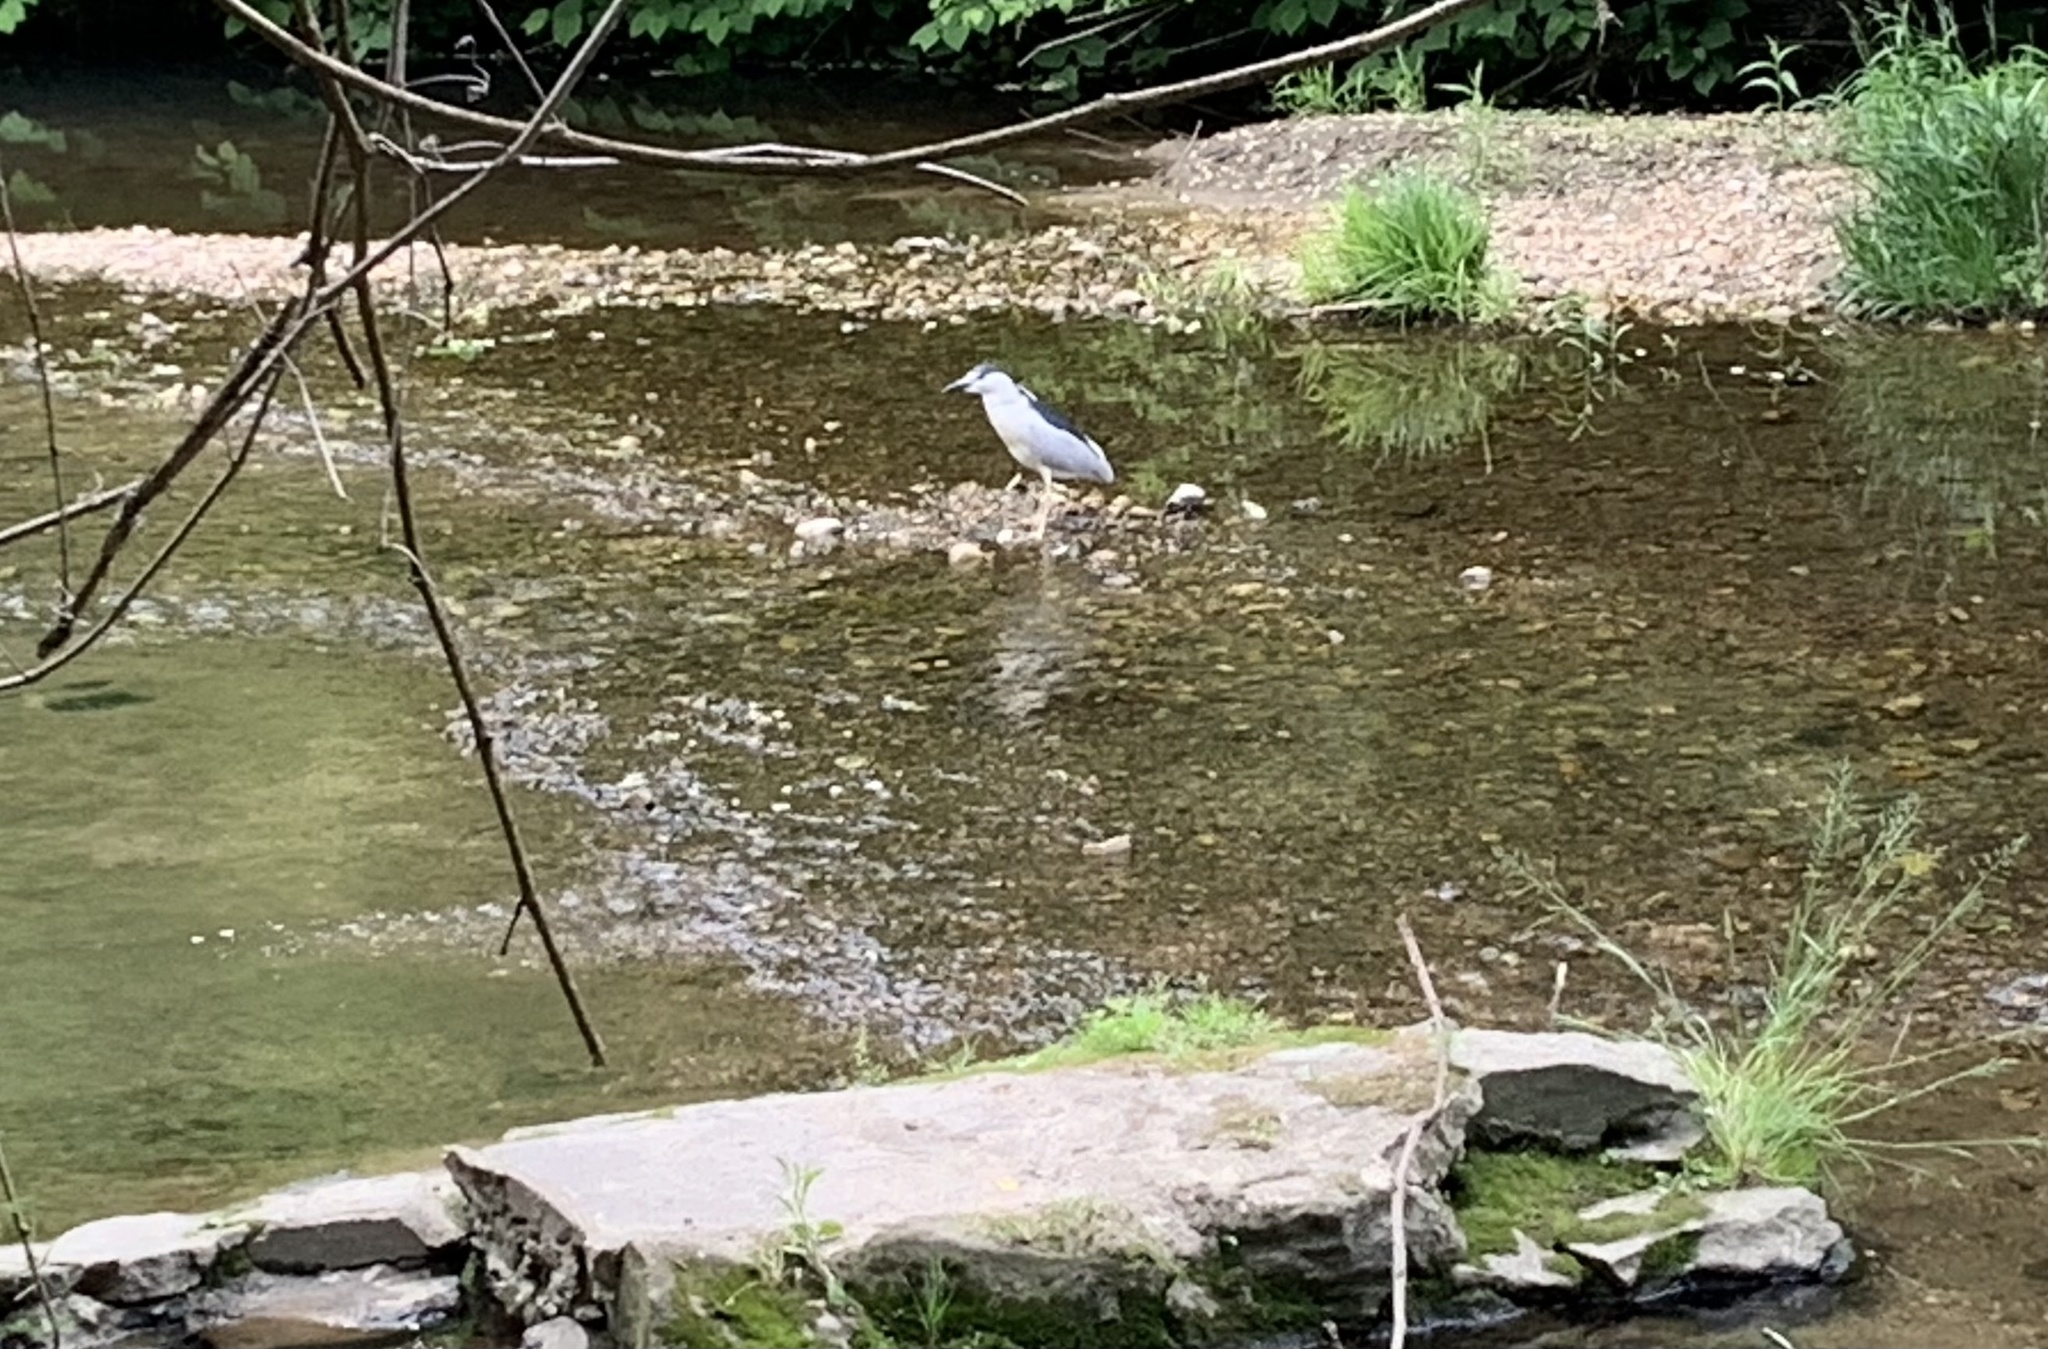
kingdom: Animalia
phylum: Chordata
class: Aves
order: Pelecaniformes
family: Ardeidae
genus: Nycticorax
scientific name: Nycticorax nycticorax
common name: Black-crowned night heron
